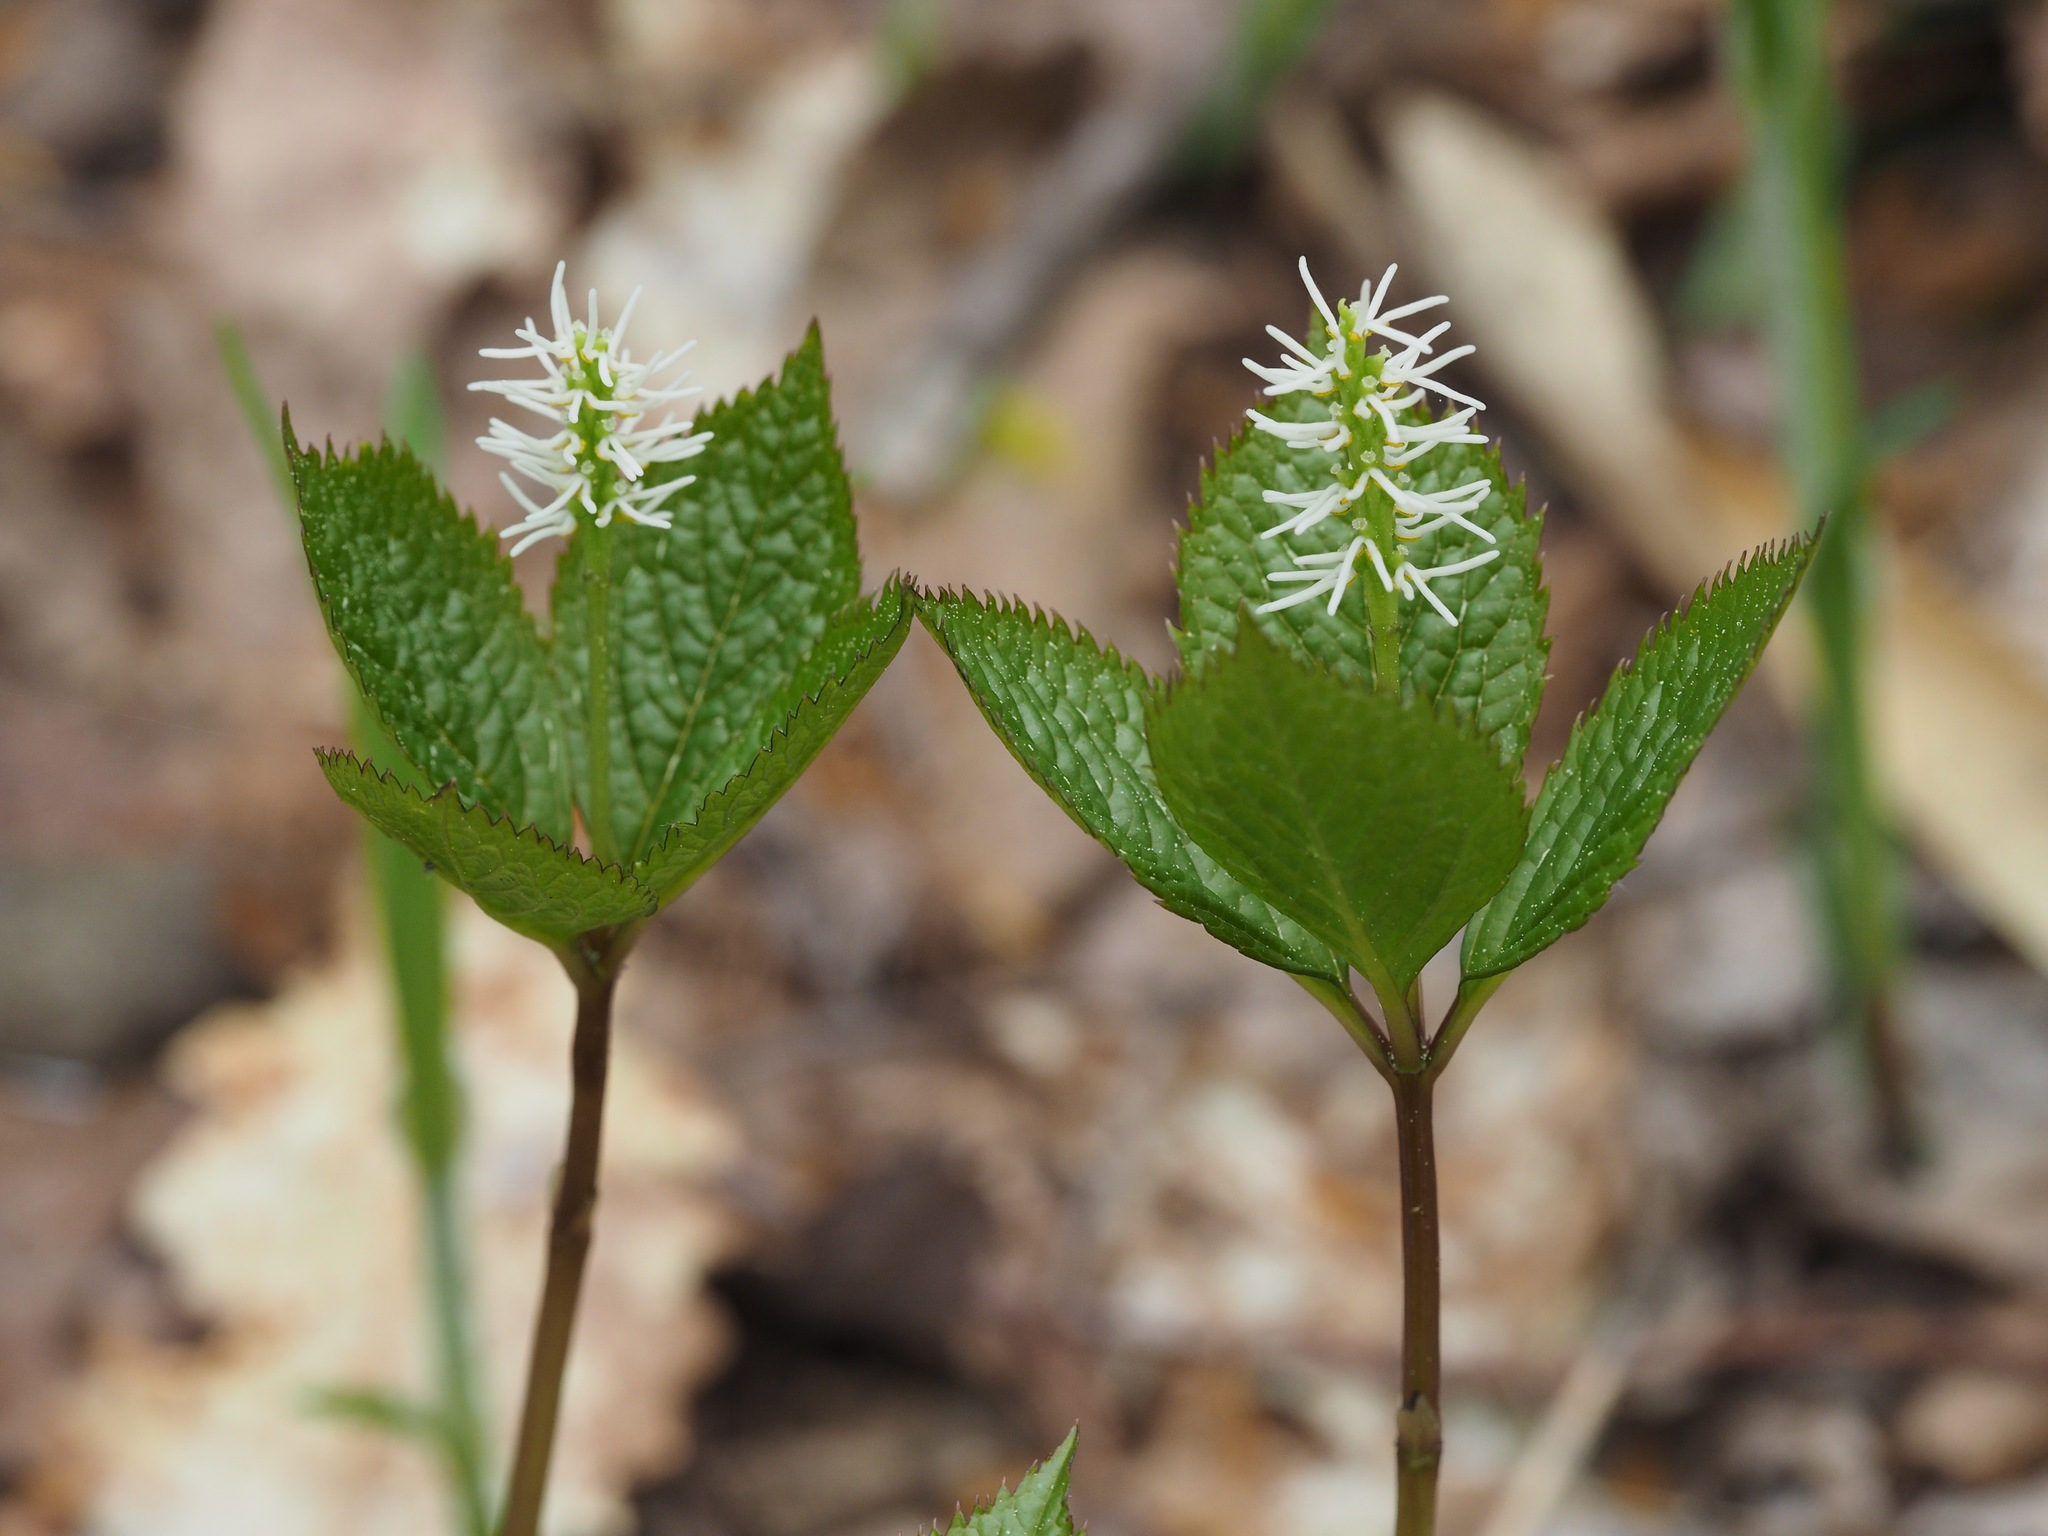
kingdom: Plantae
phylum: Tracheophyta
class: Magnoliopsida
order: Chloranthales
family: Chloranthaceae
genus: Chloranthus
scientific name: Chloranthus quadrifolius
